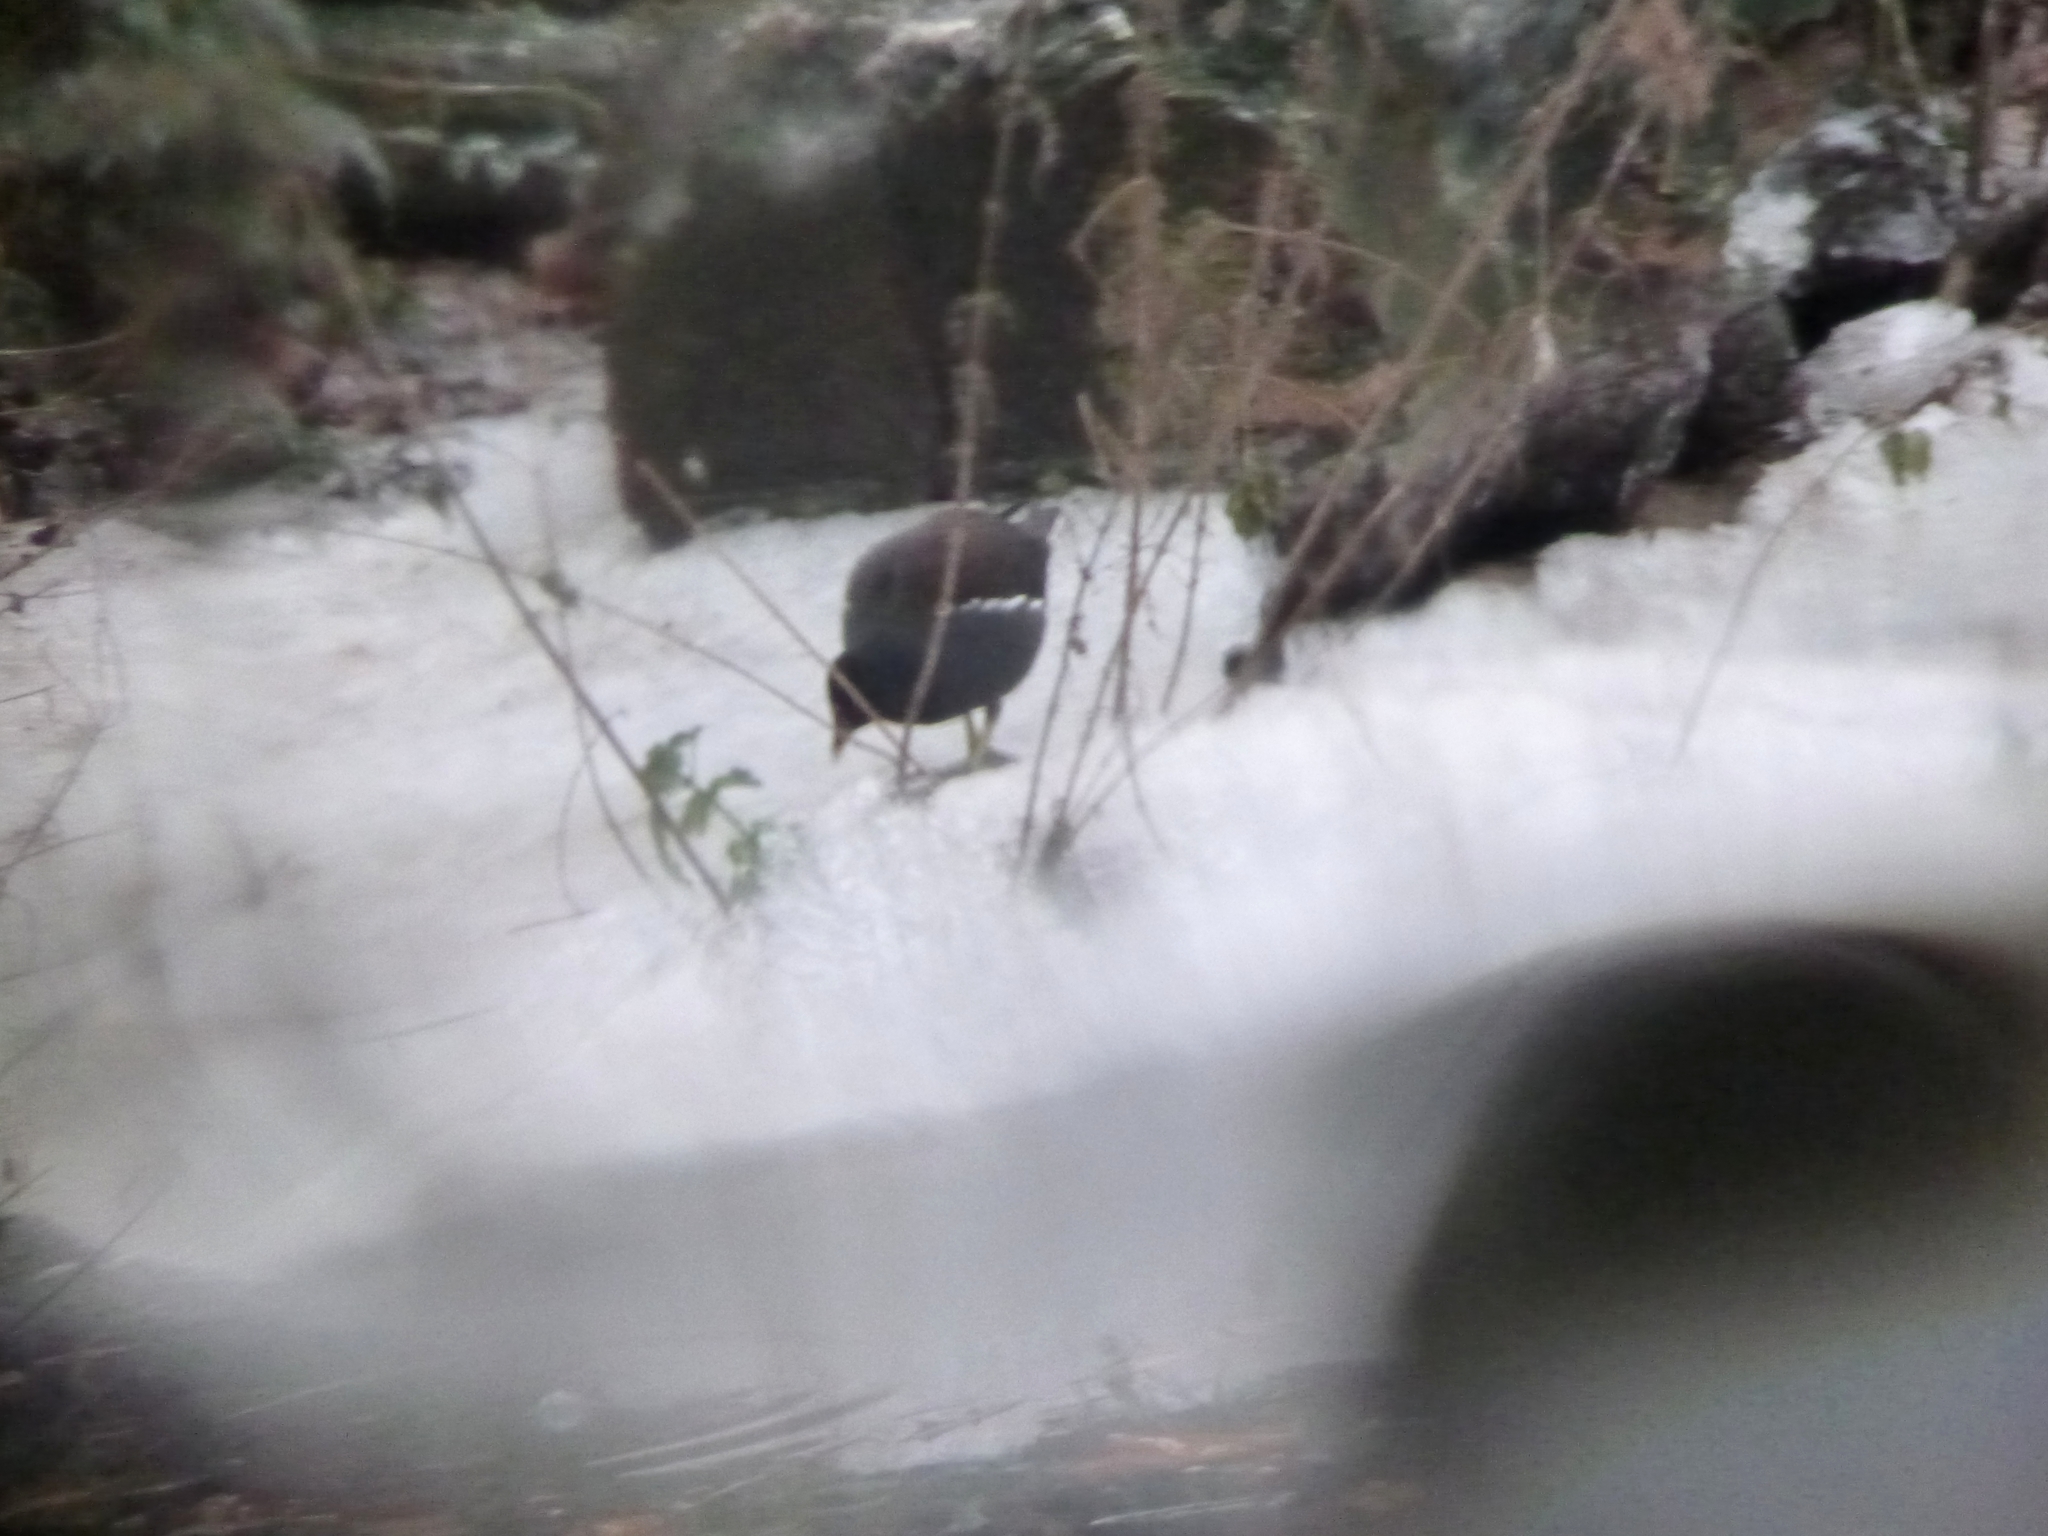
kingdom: Animalia
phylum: Chordata
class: Aves
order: Gruiformes
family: Rallidae
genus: Gallinula
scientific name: Gallinula chloropus
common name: Common moorhen
